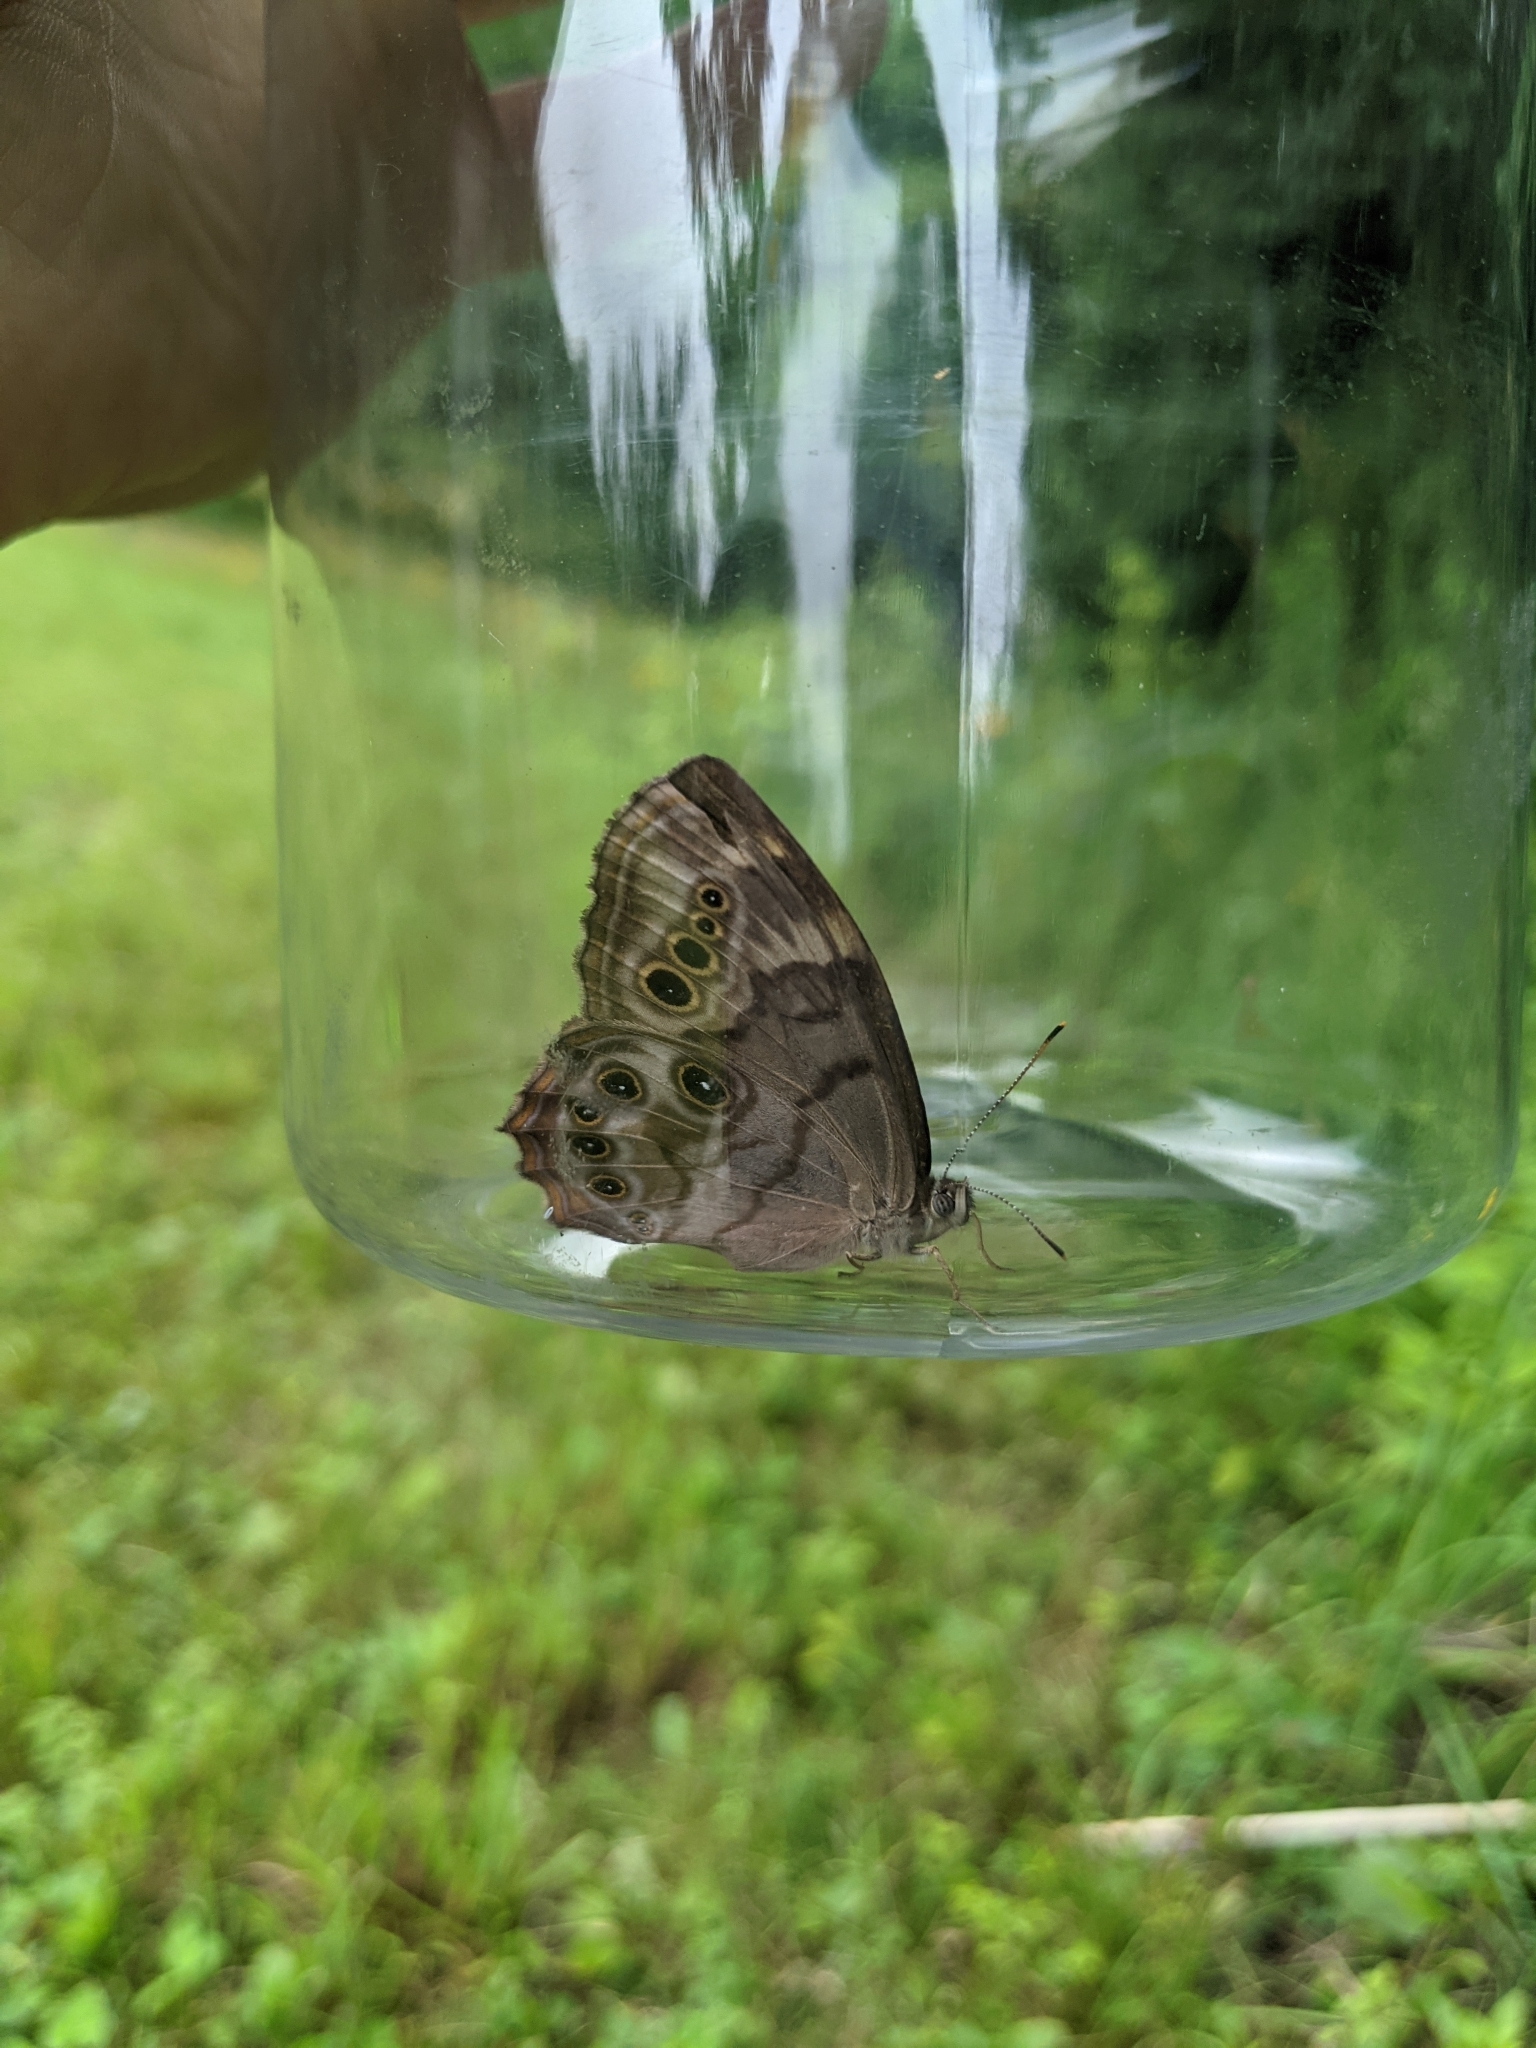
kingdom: Animalia
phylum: Arthropoda
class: Insecta
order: Lepidoptera
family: Nymphalidae
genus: Lethe
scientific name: Lethe anthedon
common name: Northern pearly-eye
